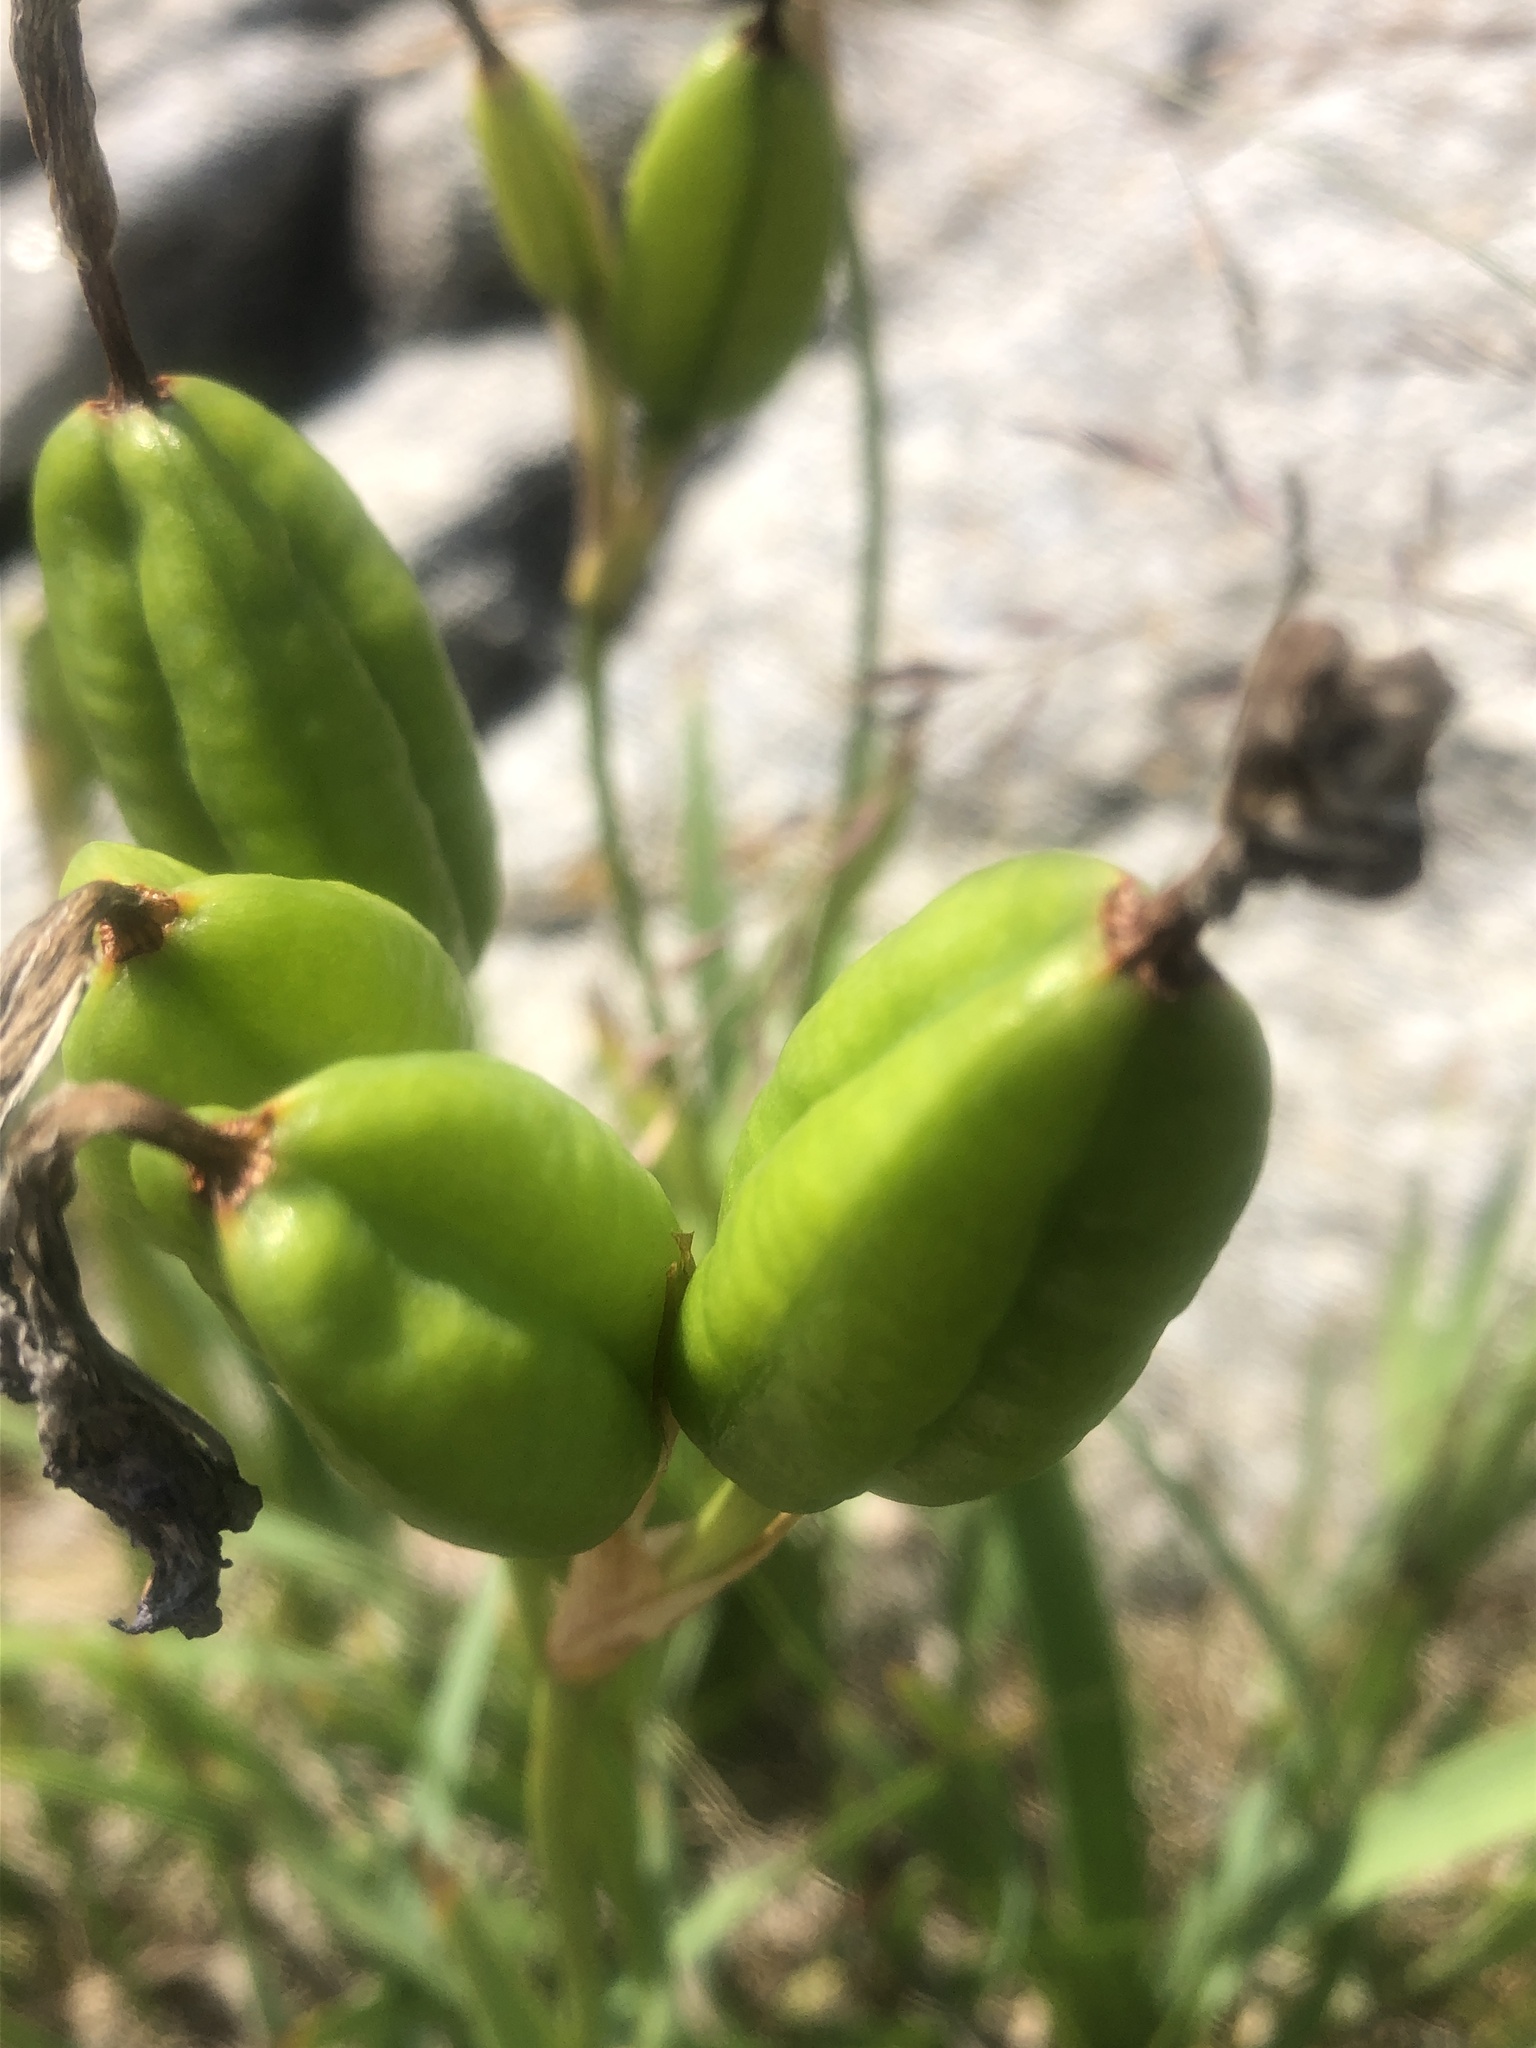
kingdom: Plantae
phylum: Tracheophyta
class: Liliopsida
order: Asparagales
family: Iridaceae
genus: Iris
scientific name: Iris hookeri
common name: Canada beach-head iris
